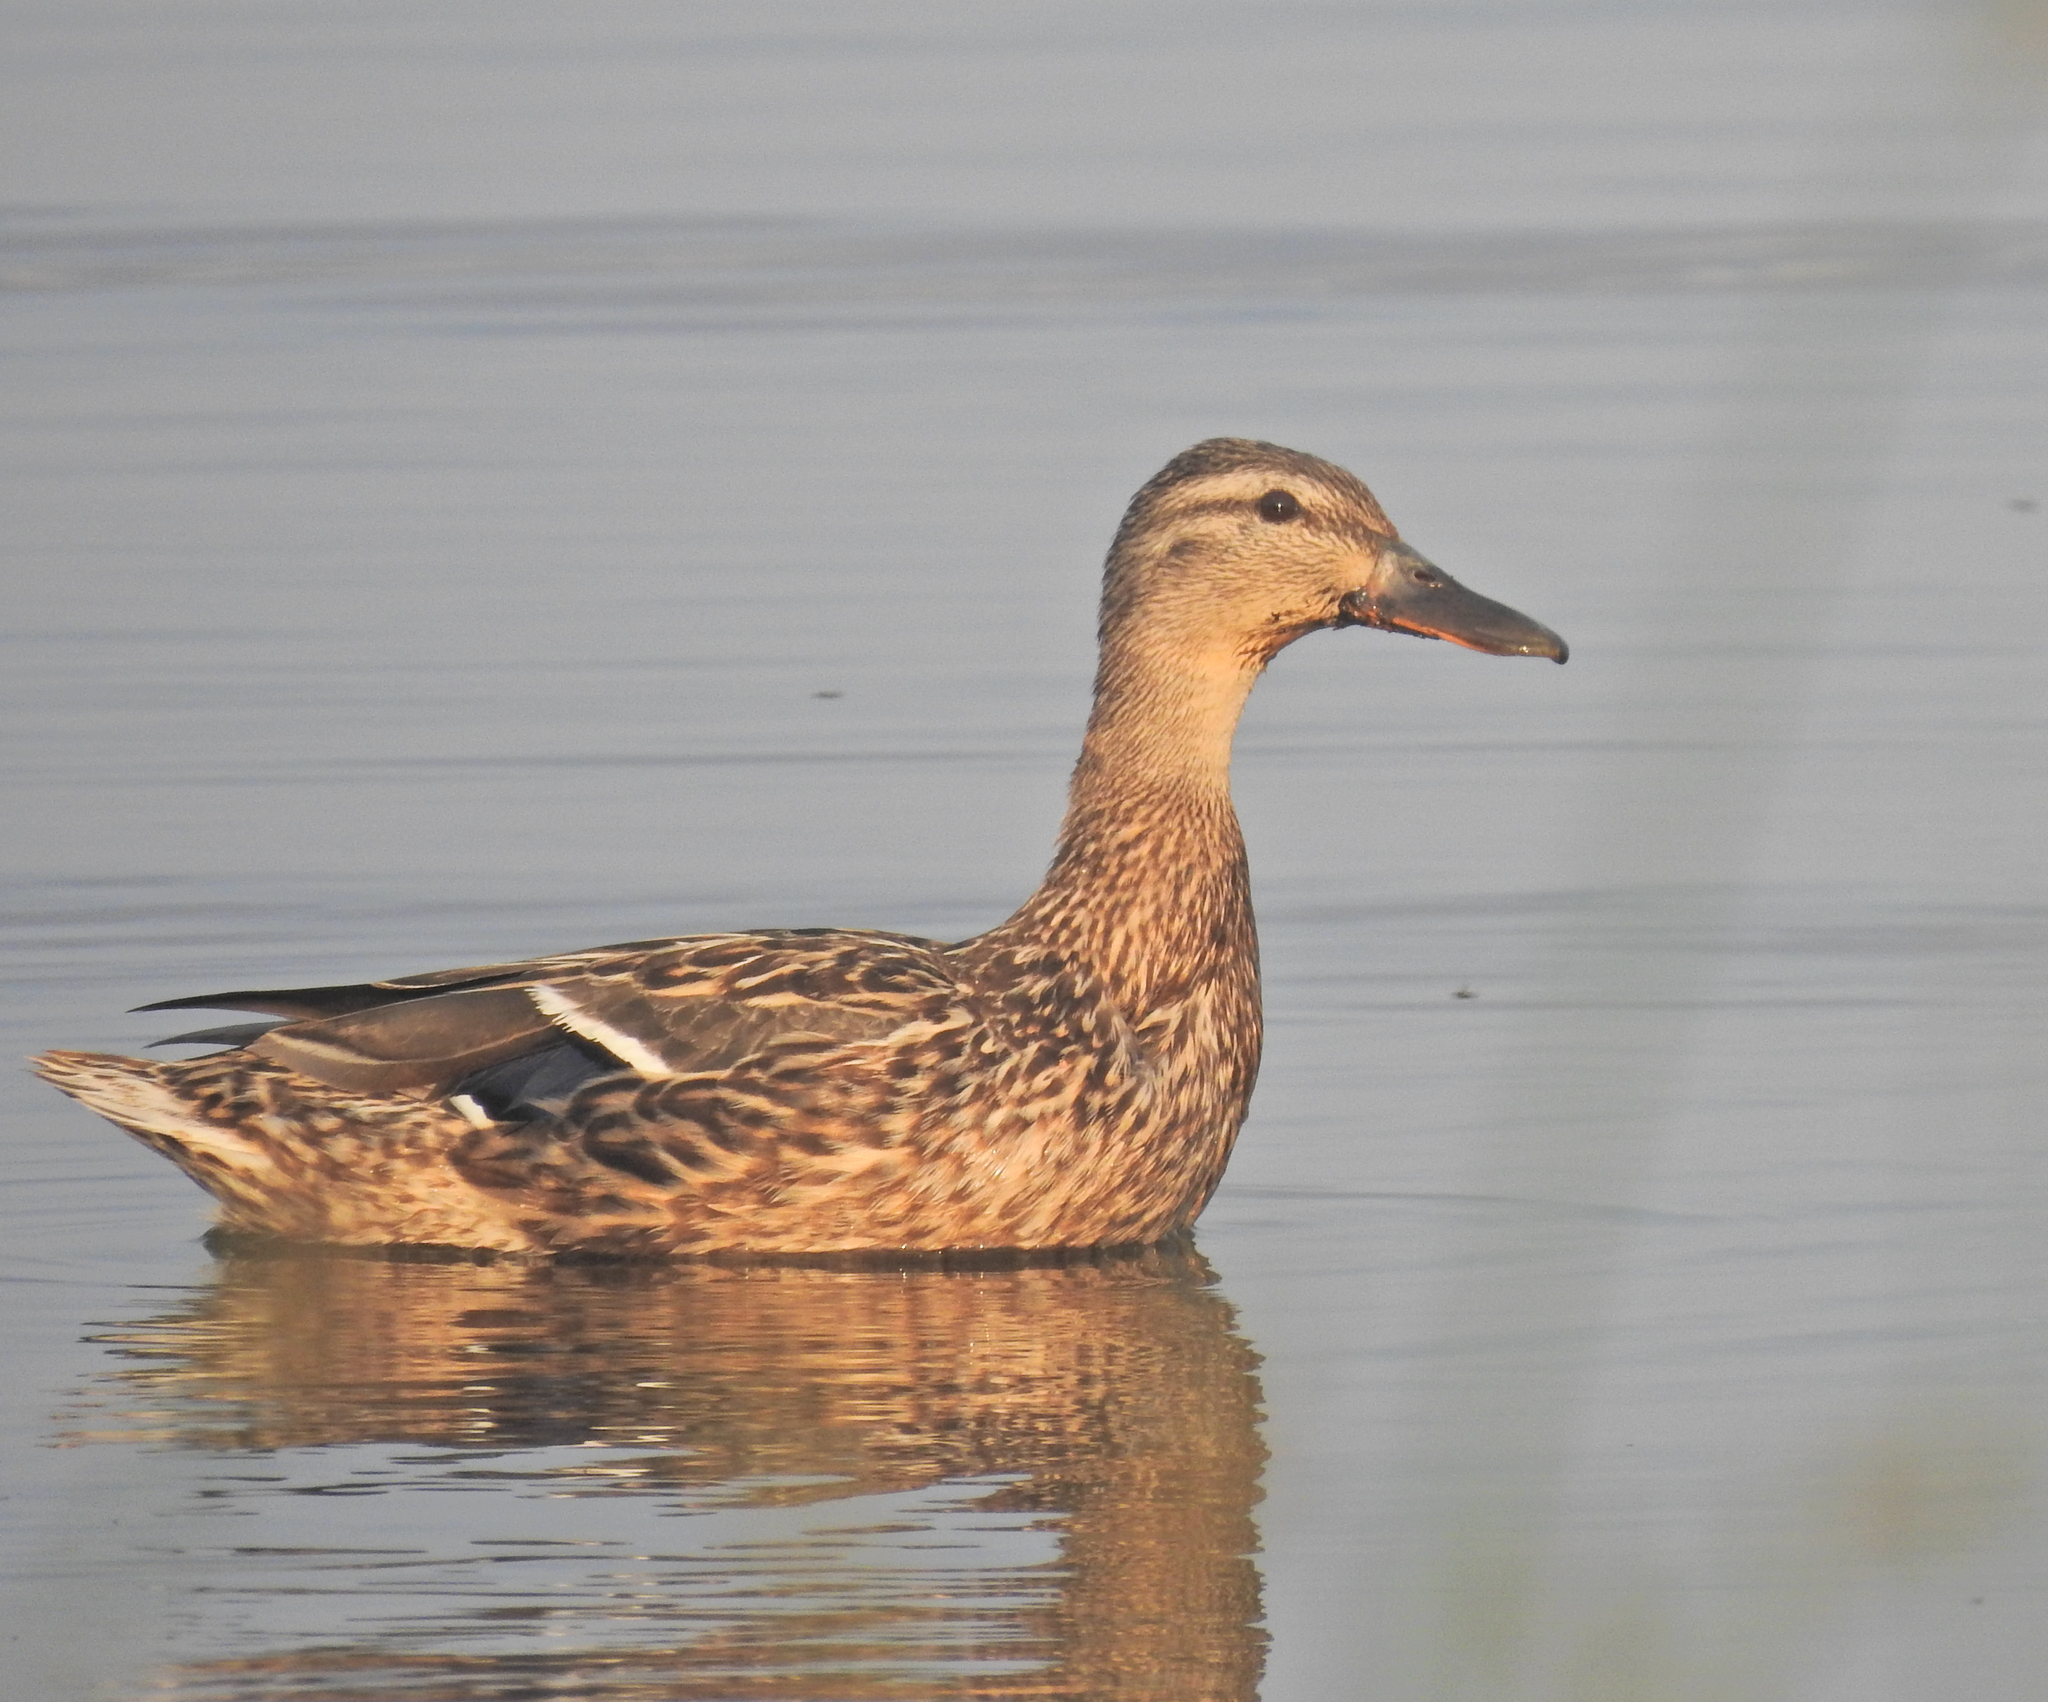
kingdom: Animalia
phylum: Chordata
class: Aves
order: Anseriformes
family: Anatidae
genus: Anas
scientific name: Anas platyrhynchos
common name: Mallard
